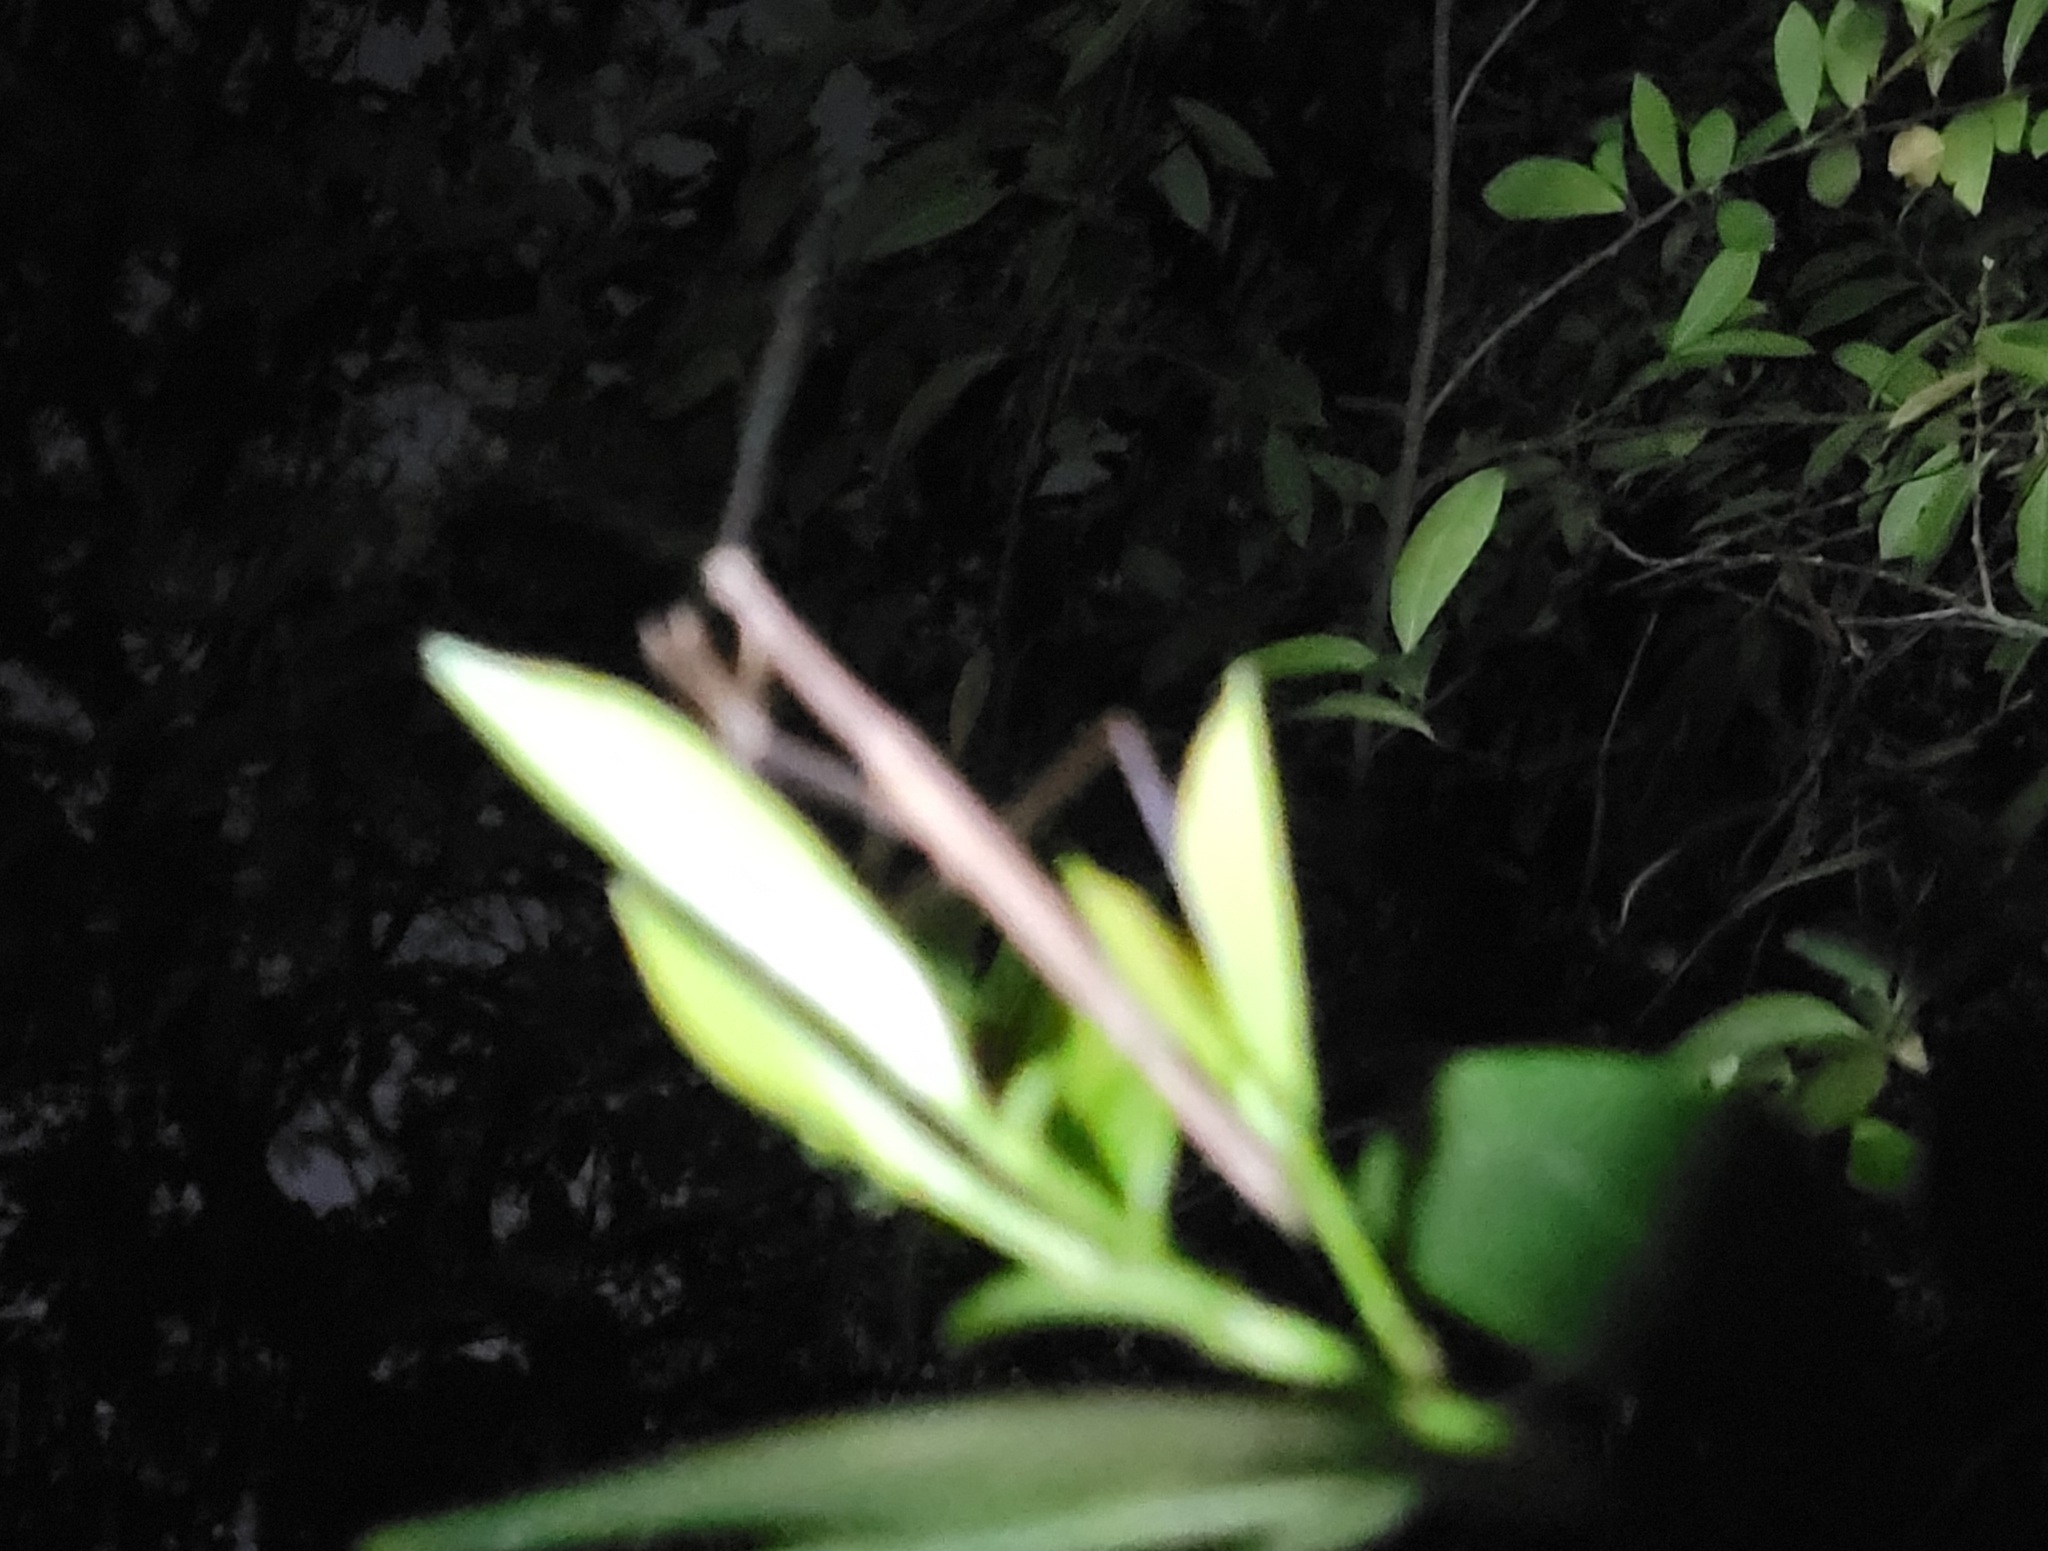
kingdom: Animalia
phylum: Arthropoda
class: Insecta
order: Mantodea
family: Thespidae
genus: Thesprotia
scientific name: Thesprotia graminis
